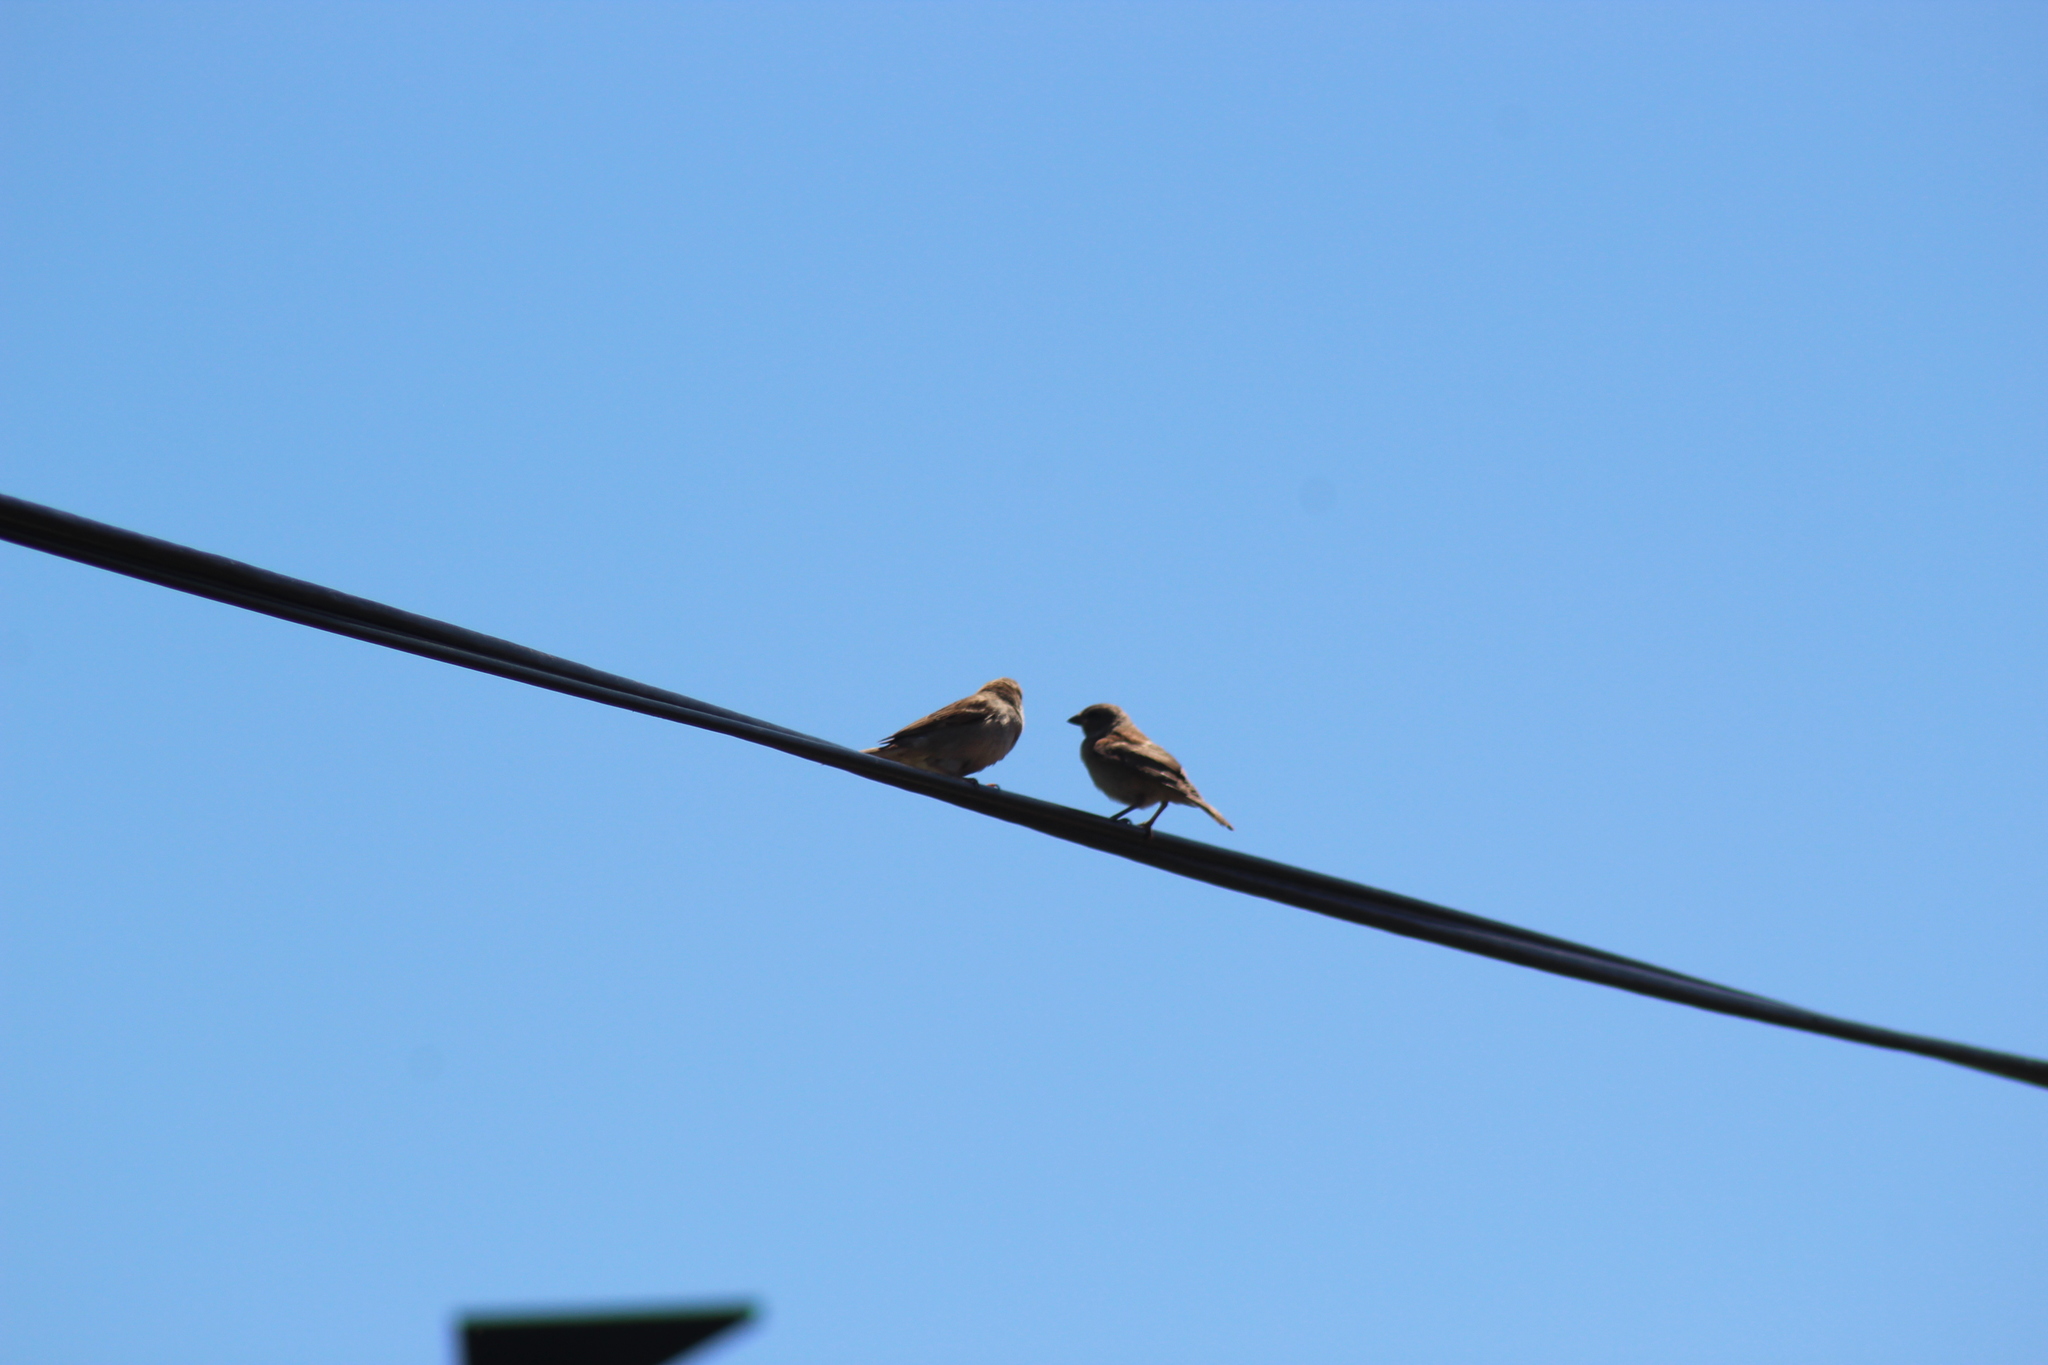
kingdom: Animalia
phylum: Chordata
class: Aves
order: Passeriformes
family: Passeridae
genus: Passer
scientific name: Passer domesticus
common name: House sparrow
